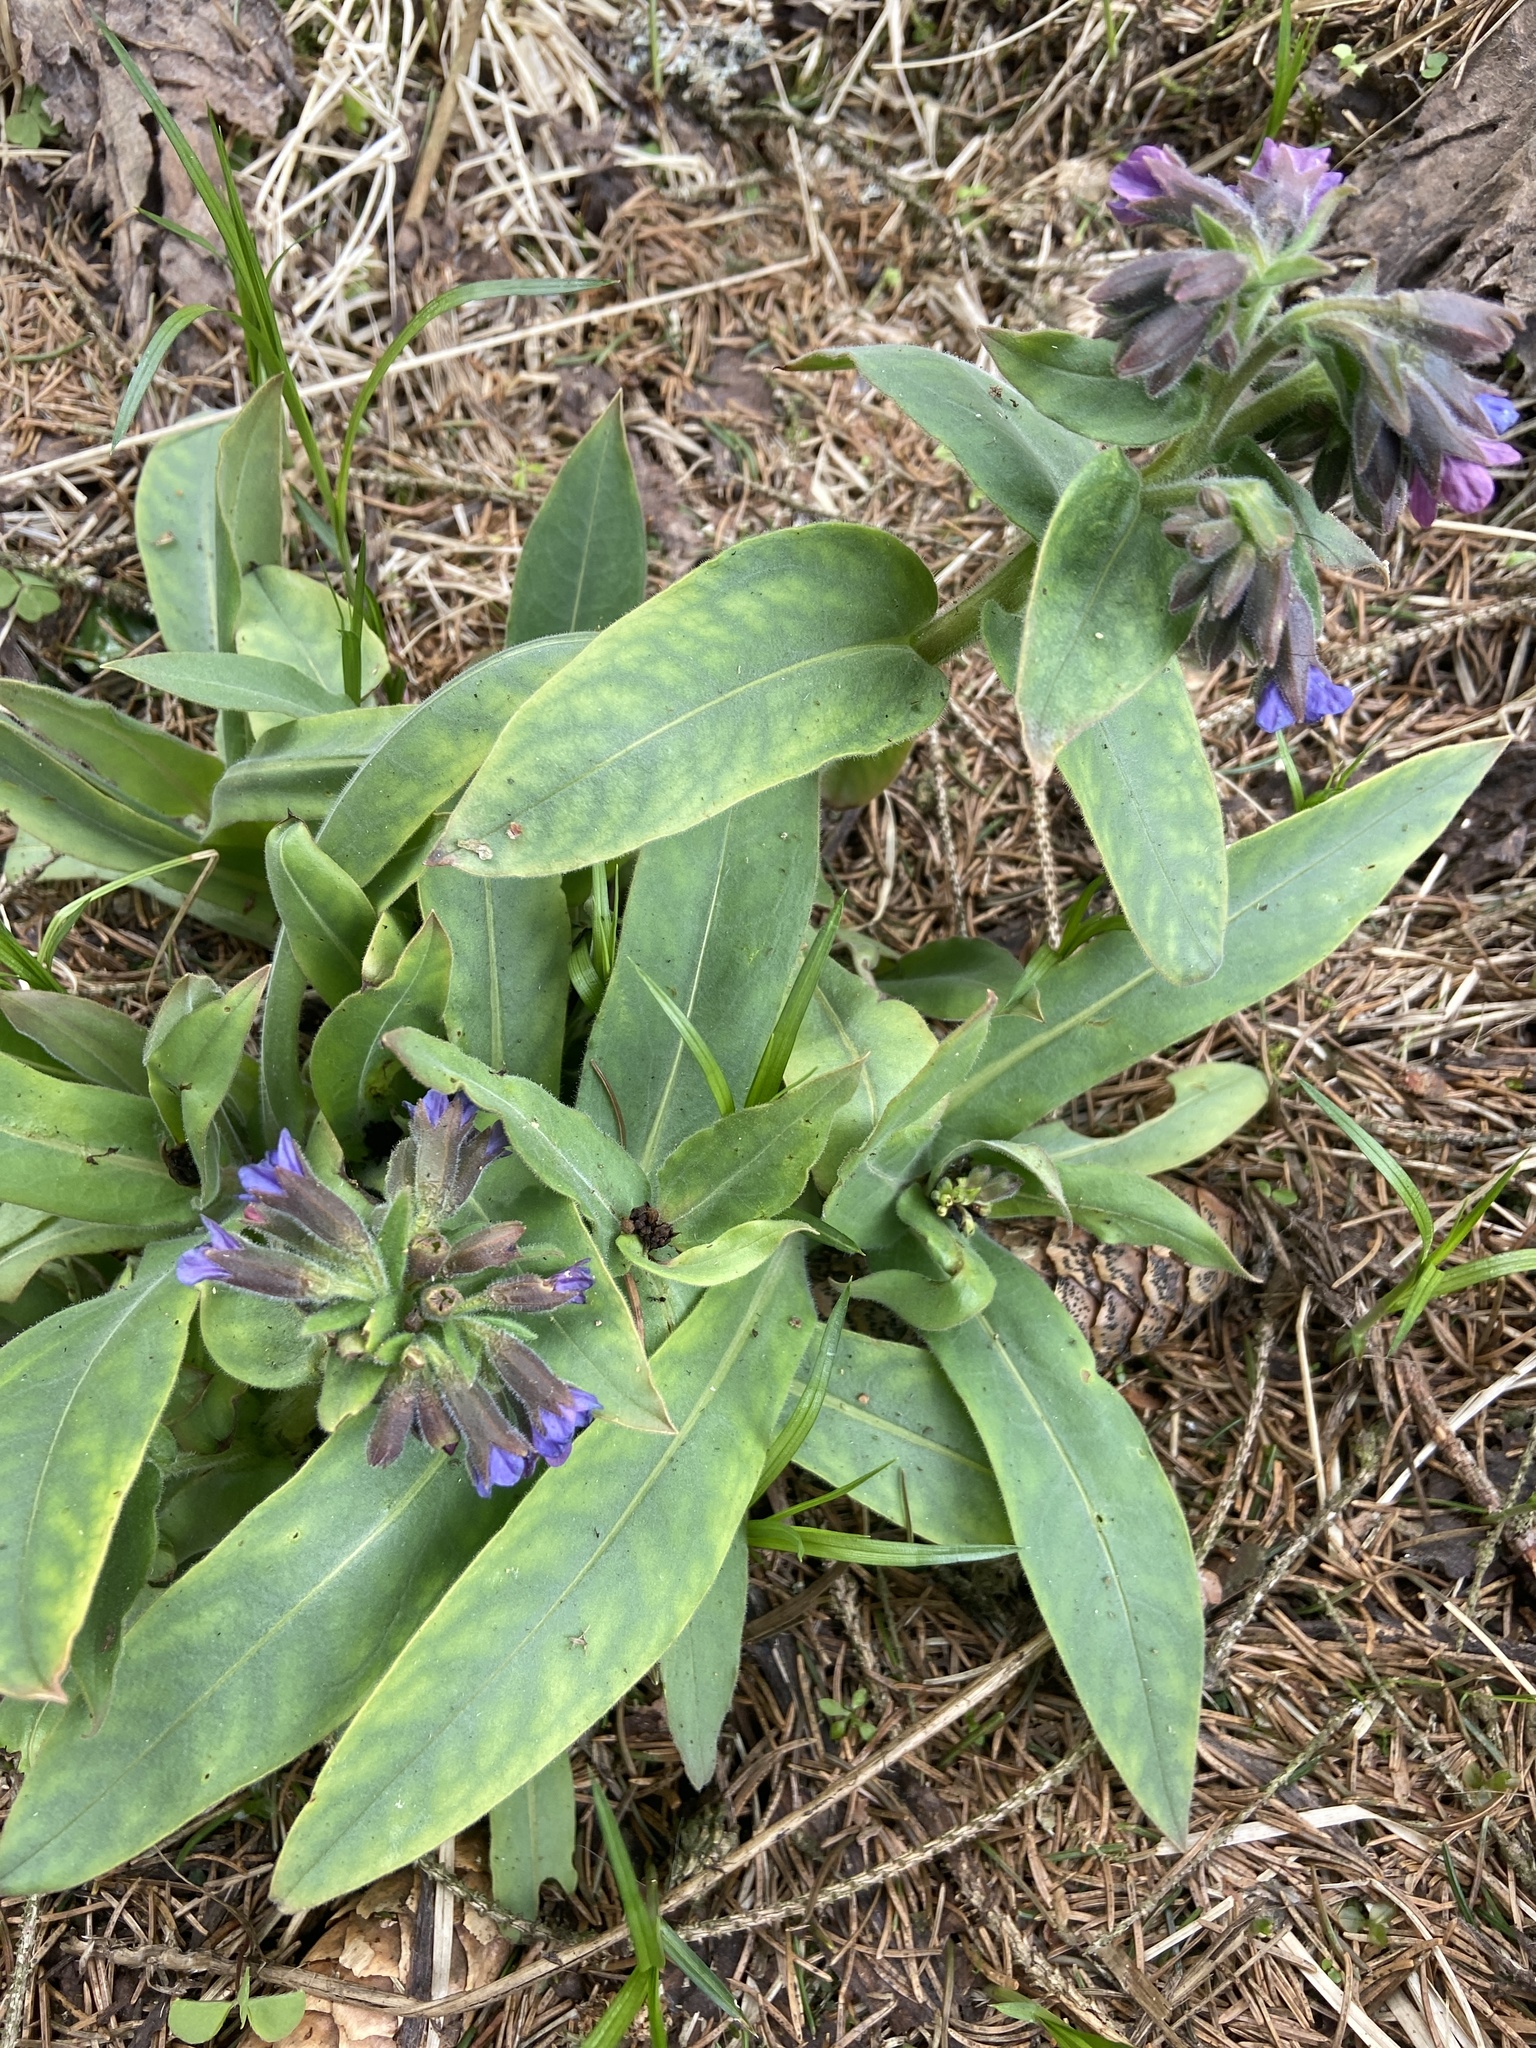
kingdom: Plantae
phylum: Tracheophyta
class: Magnoliopsida
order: Boraginales
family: Boraginaceae
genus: Pulmonaria
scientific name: Pulmonaria mollis
